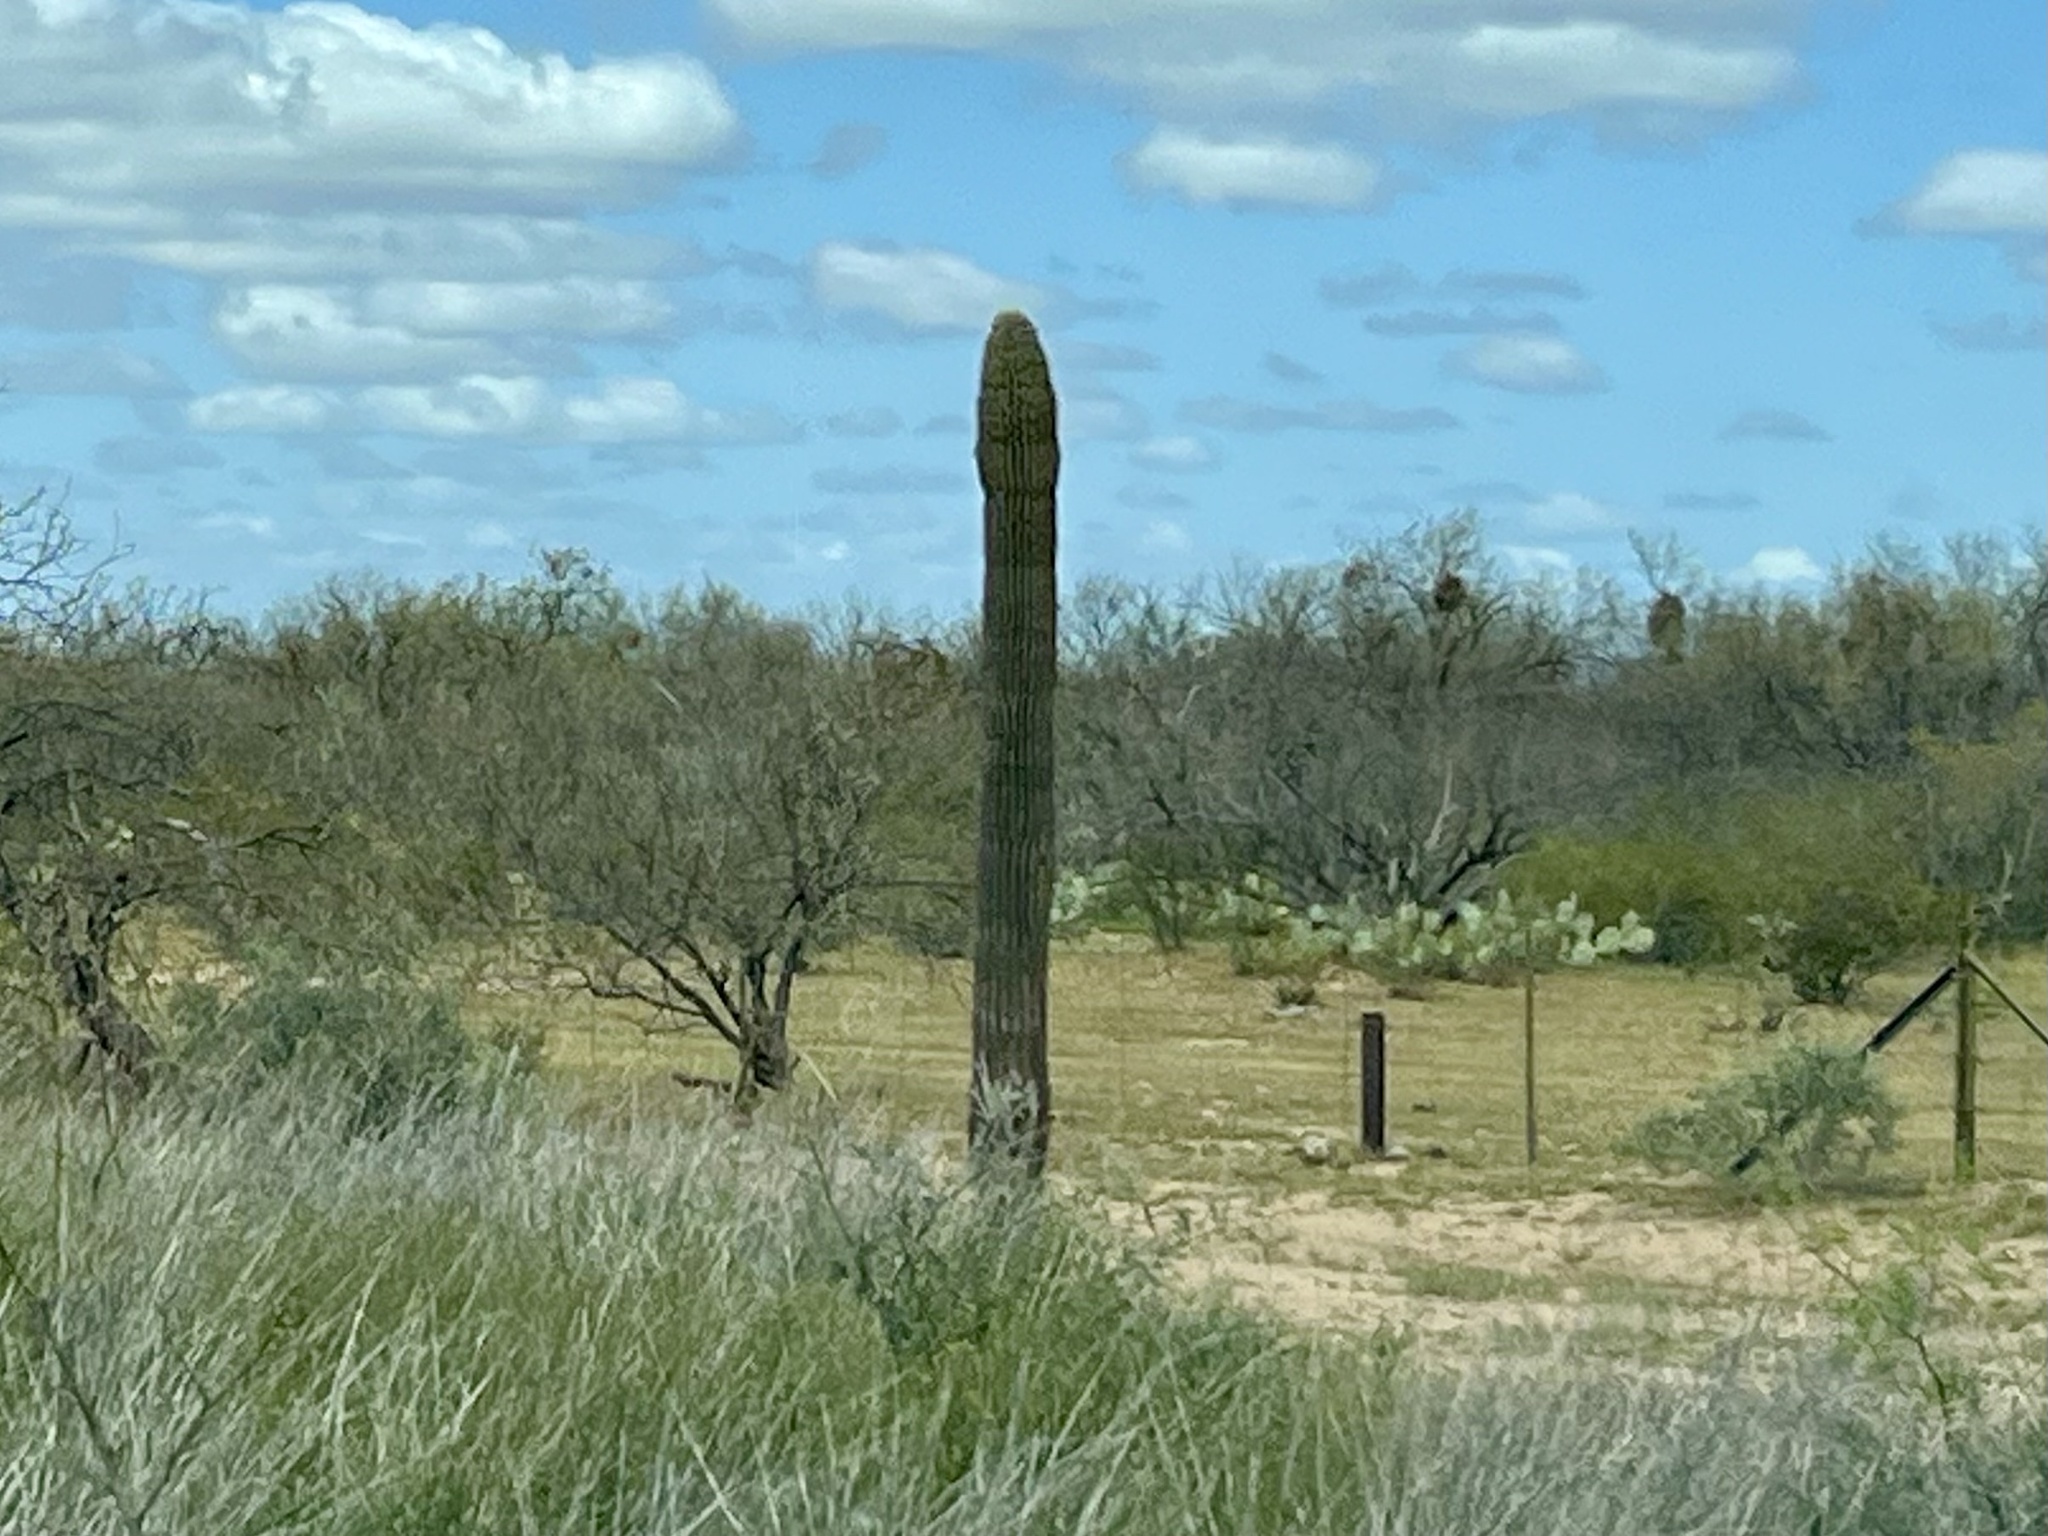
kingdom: Plantae
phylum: Tracheophyta
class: Magnoliopsida
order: Caryophyllales
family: Cactaceae
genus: Carnegiea
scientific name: Carnegiea gigantea
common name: Saguaro
